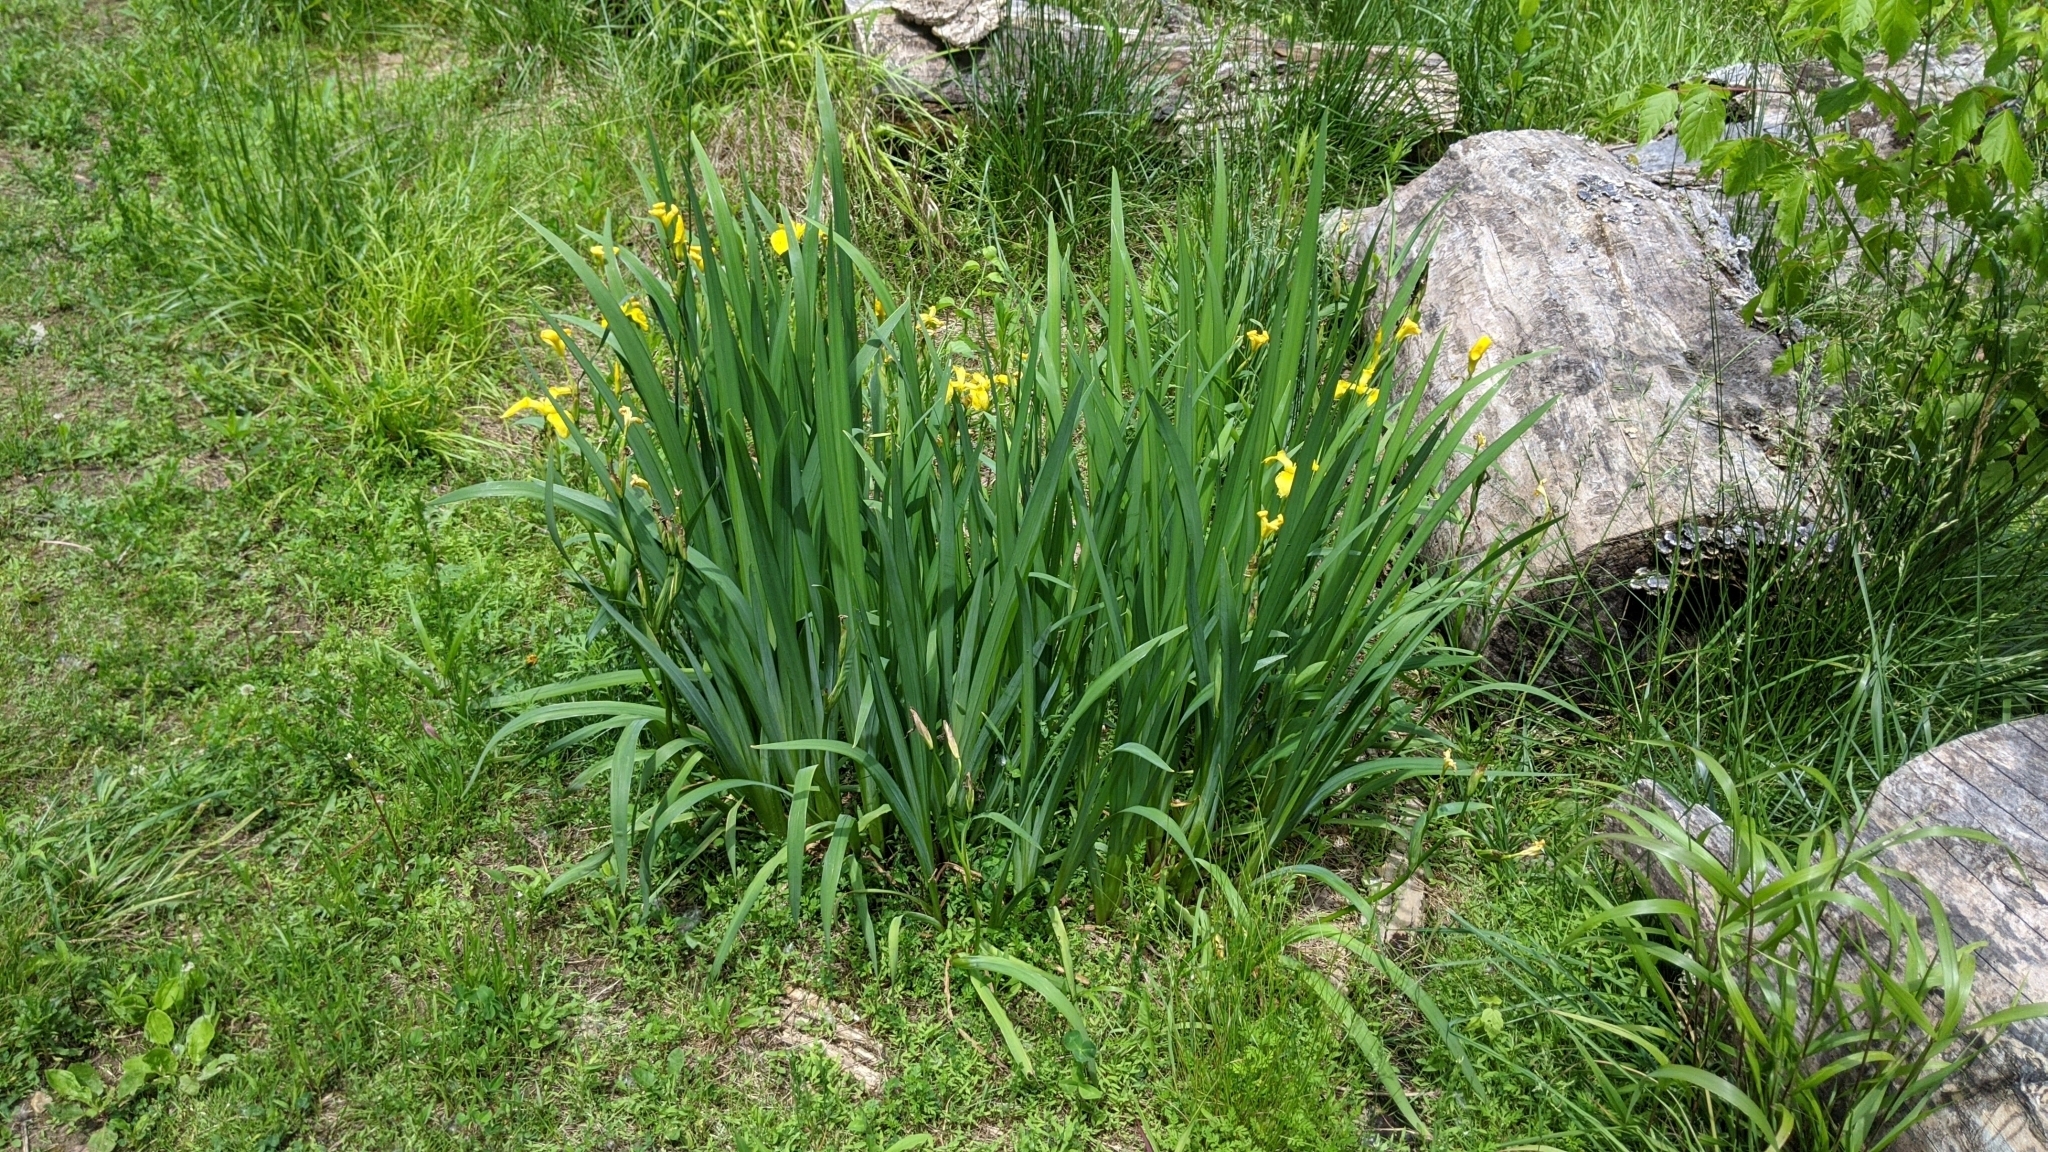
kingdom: Plantae
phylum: Tracheophyta
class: Liliopsida
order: Asparagales
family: Iridaceae
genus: Iris
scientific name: Iris pseudacorus
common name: Yellow flag
